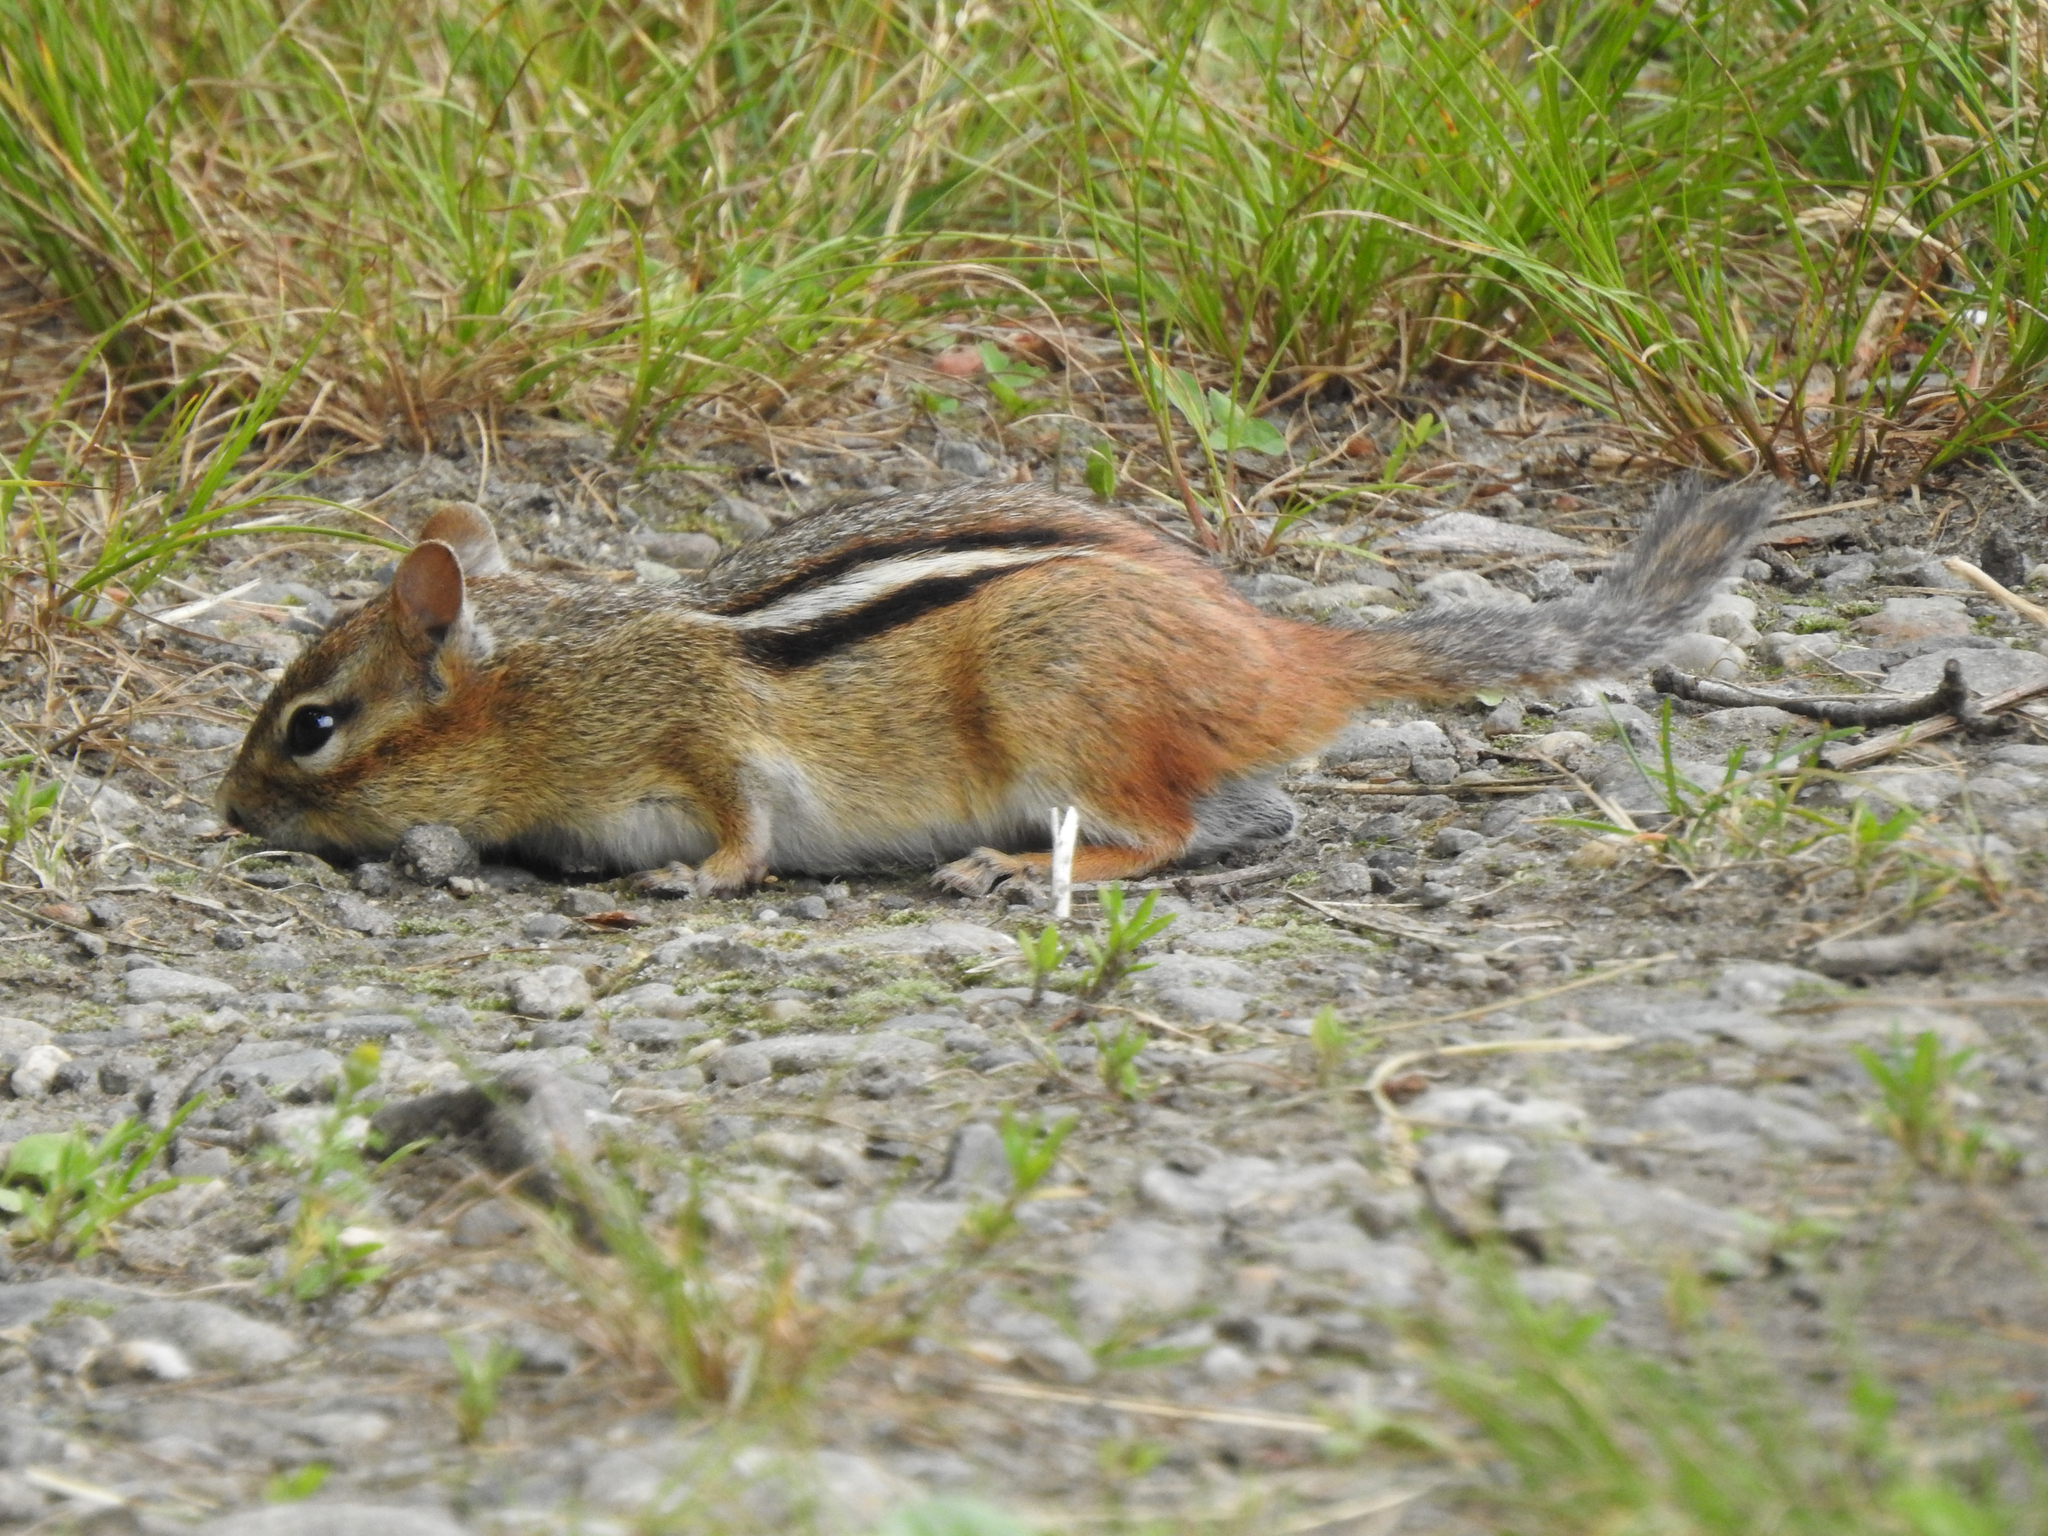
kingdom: Animalia
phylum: Chordata
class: Mammalia
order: Rodentia
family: Sciuridae
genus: Tamias
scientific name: Tamias striatus
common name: Eastern chipmunk
